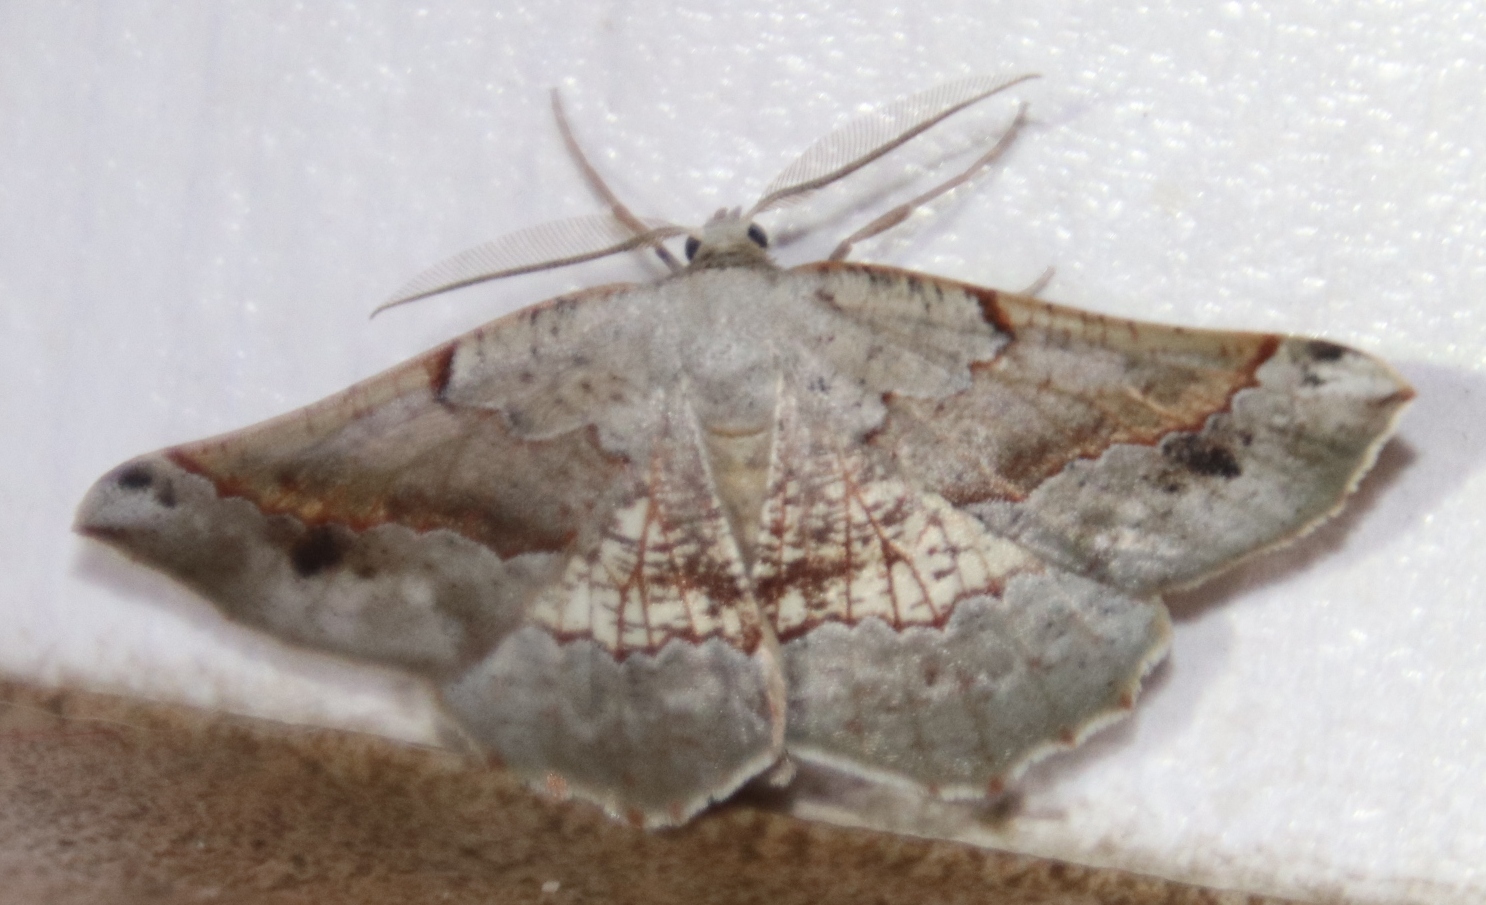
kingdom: Animalia
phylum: Arthropoda
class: Insecta
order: Lepidoptera
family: Geometridae
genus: Drepanogynis
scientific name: Drepanogynis mixtaria
